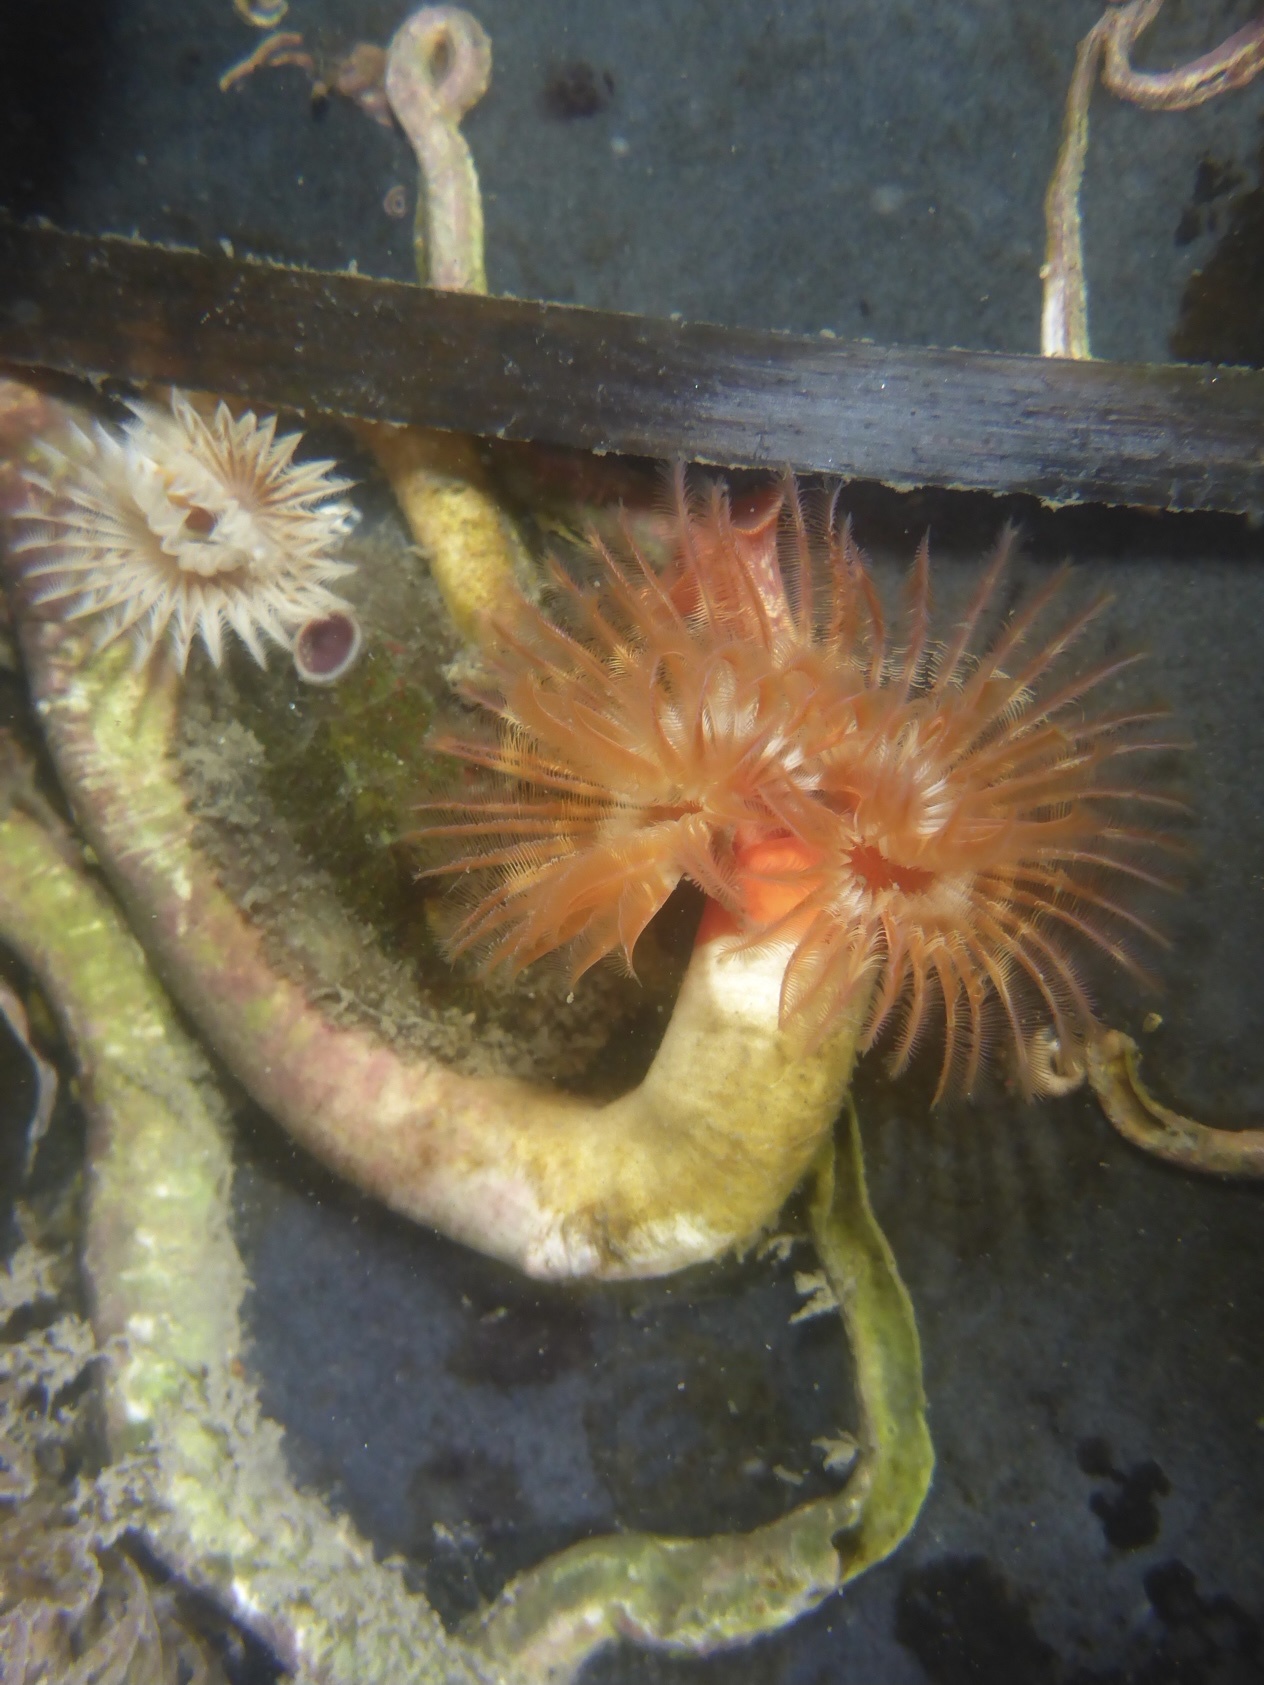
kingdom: Animalia
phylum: Annelida
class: Polychaeta
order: Sabellida
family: Serpulidae
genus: Serpula
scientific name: Serpula columbiana
